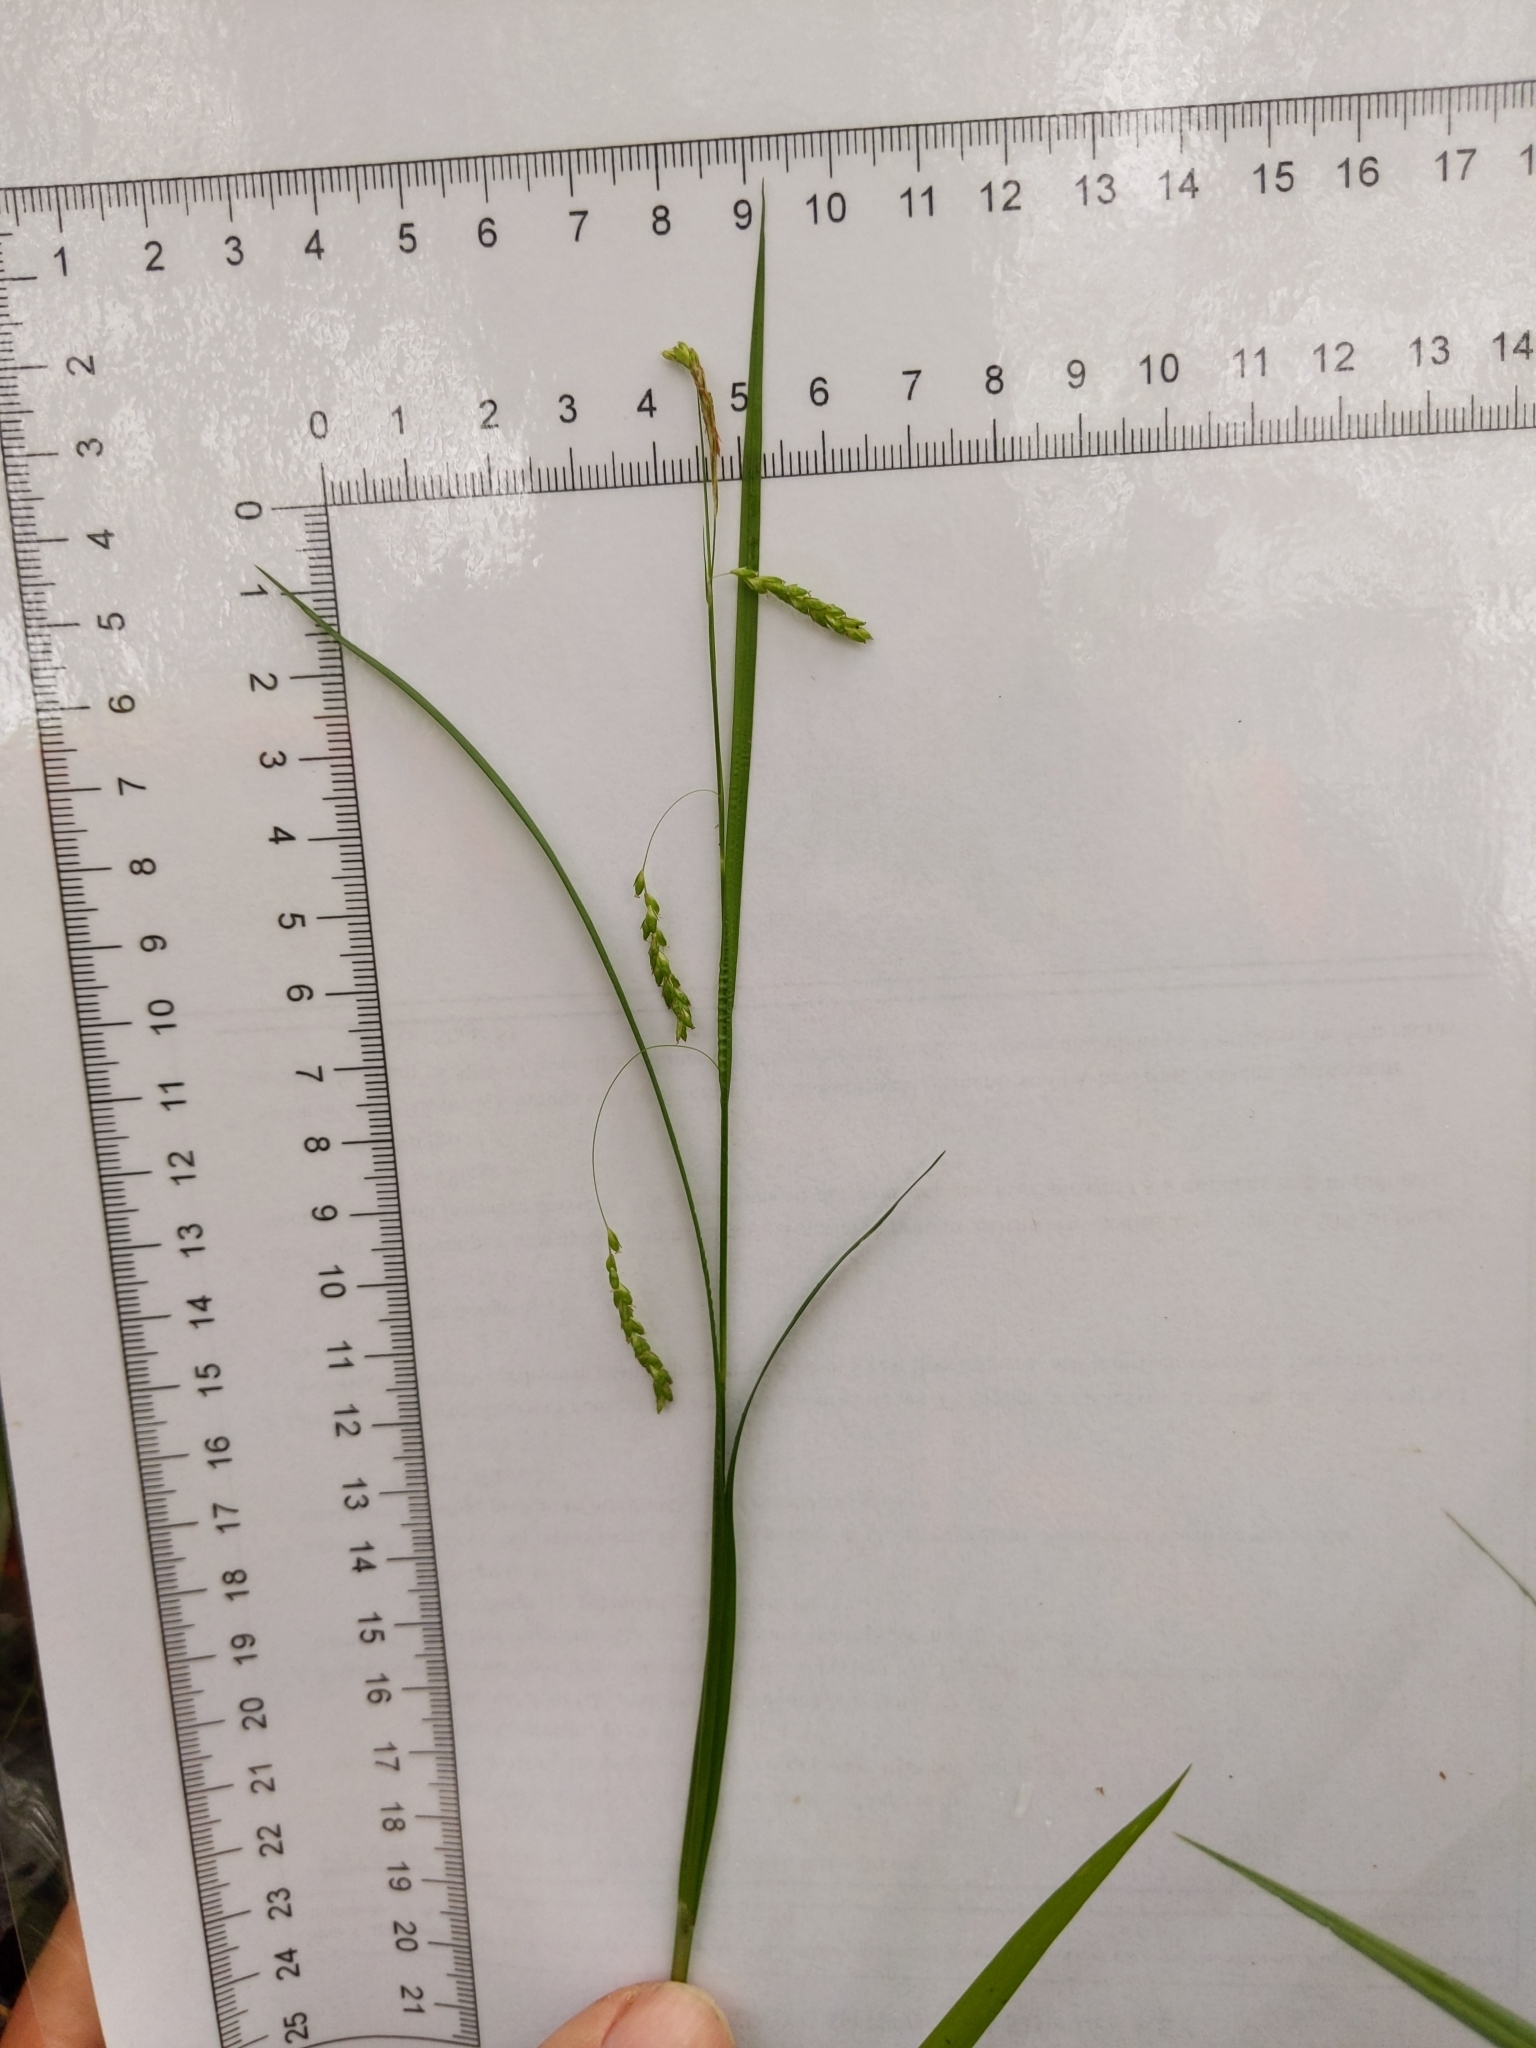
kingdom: Plantae
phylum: Tracheophyta
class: Liliopsida
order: Poales
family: Cyperaceae
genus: Carex
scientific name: Carex gracillima
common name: Graceful sedge
